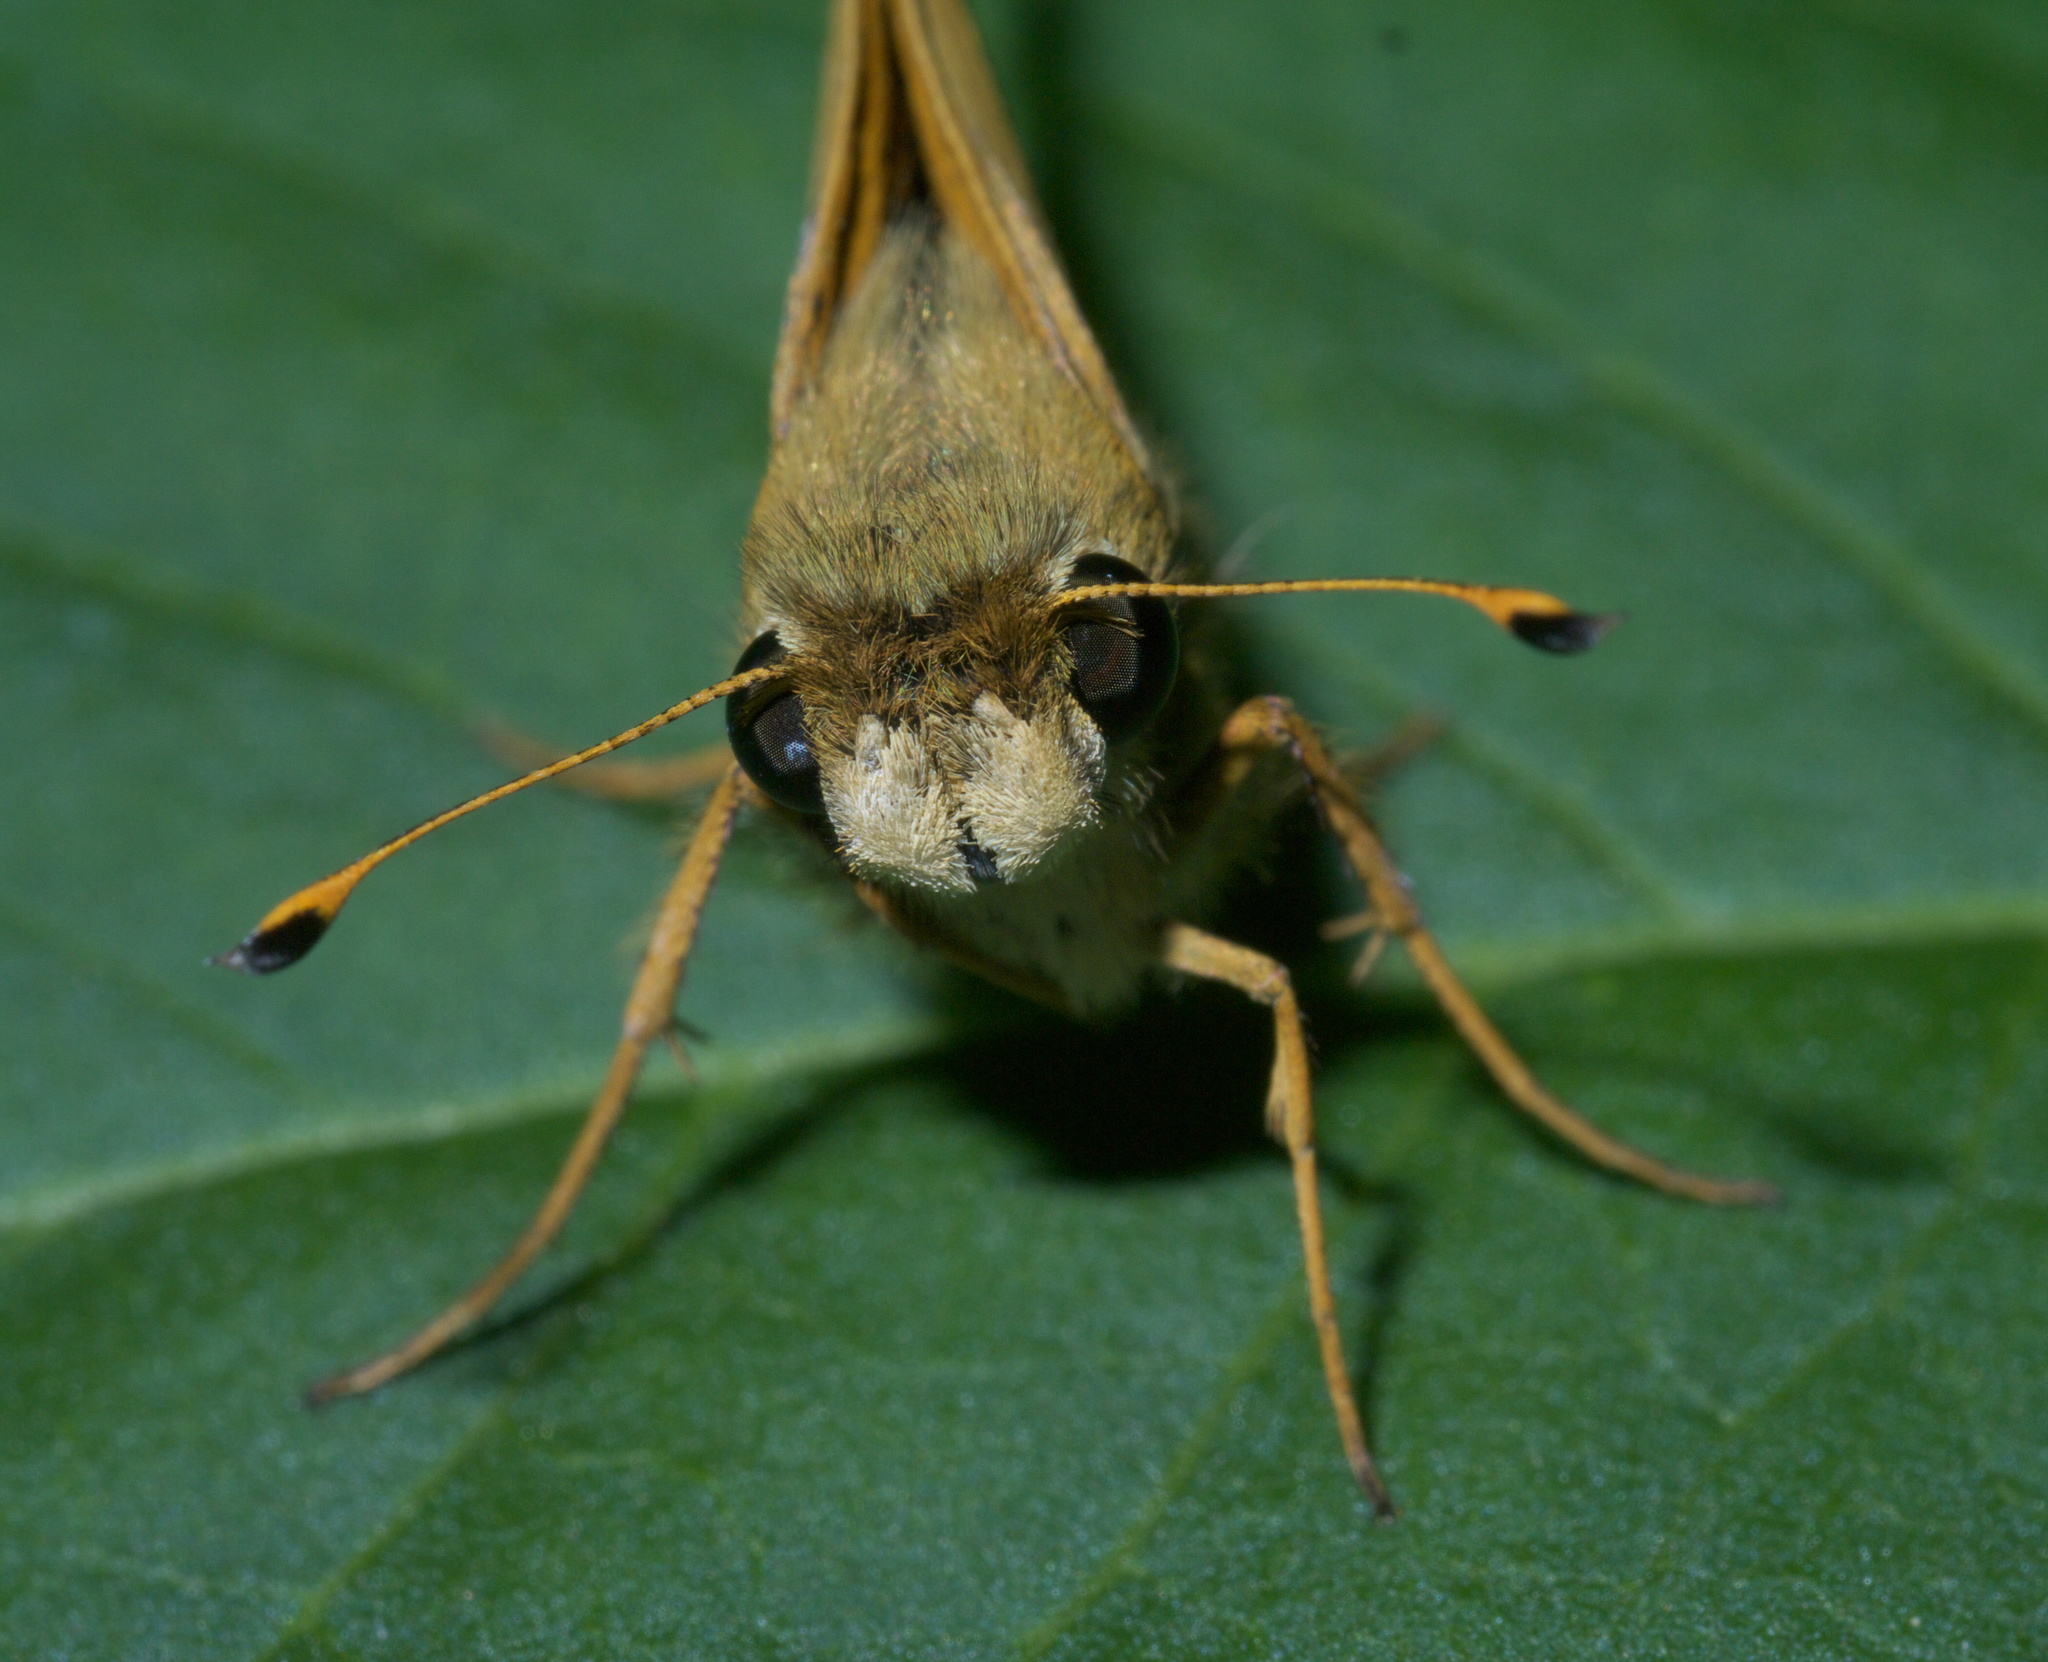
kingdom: Animalia
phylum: Arthropoda
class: Insecta
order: Lepidoptera
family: Hesperiidae
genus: Atalopedes
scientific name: Atalopedes
